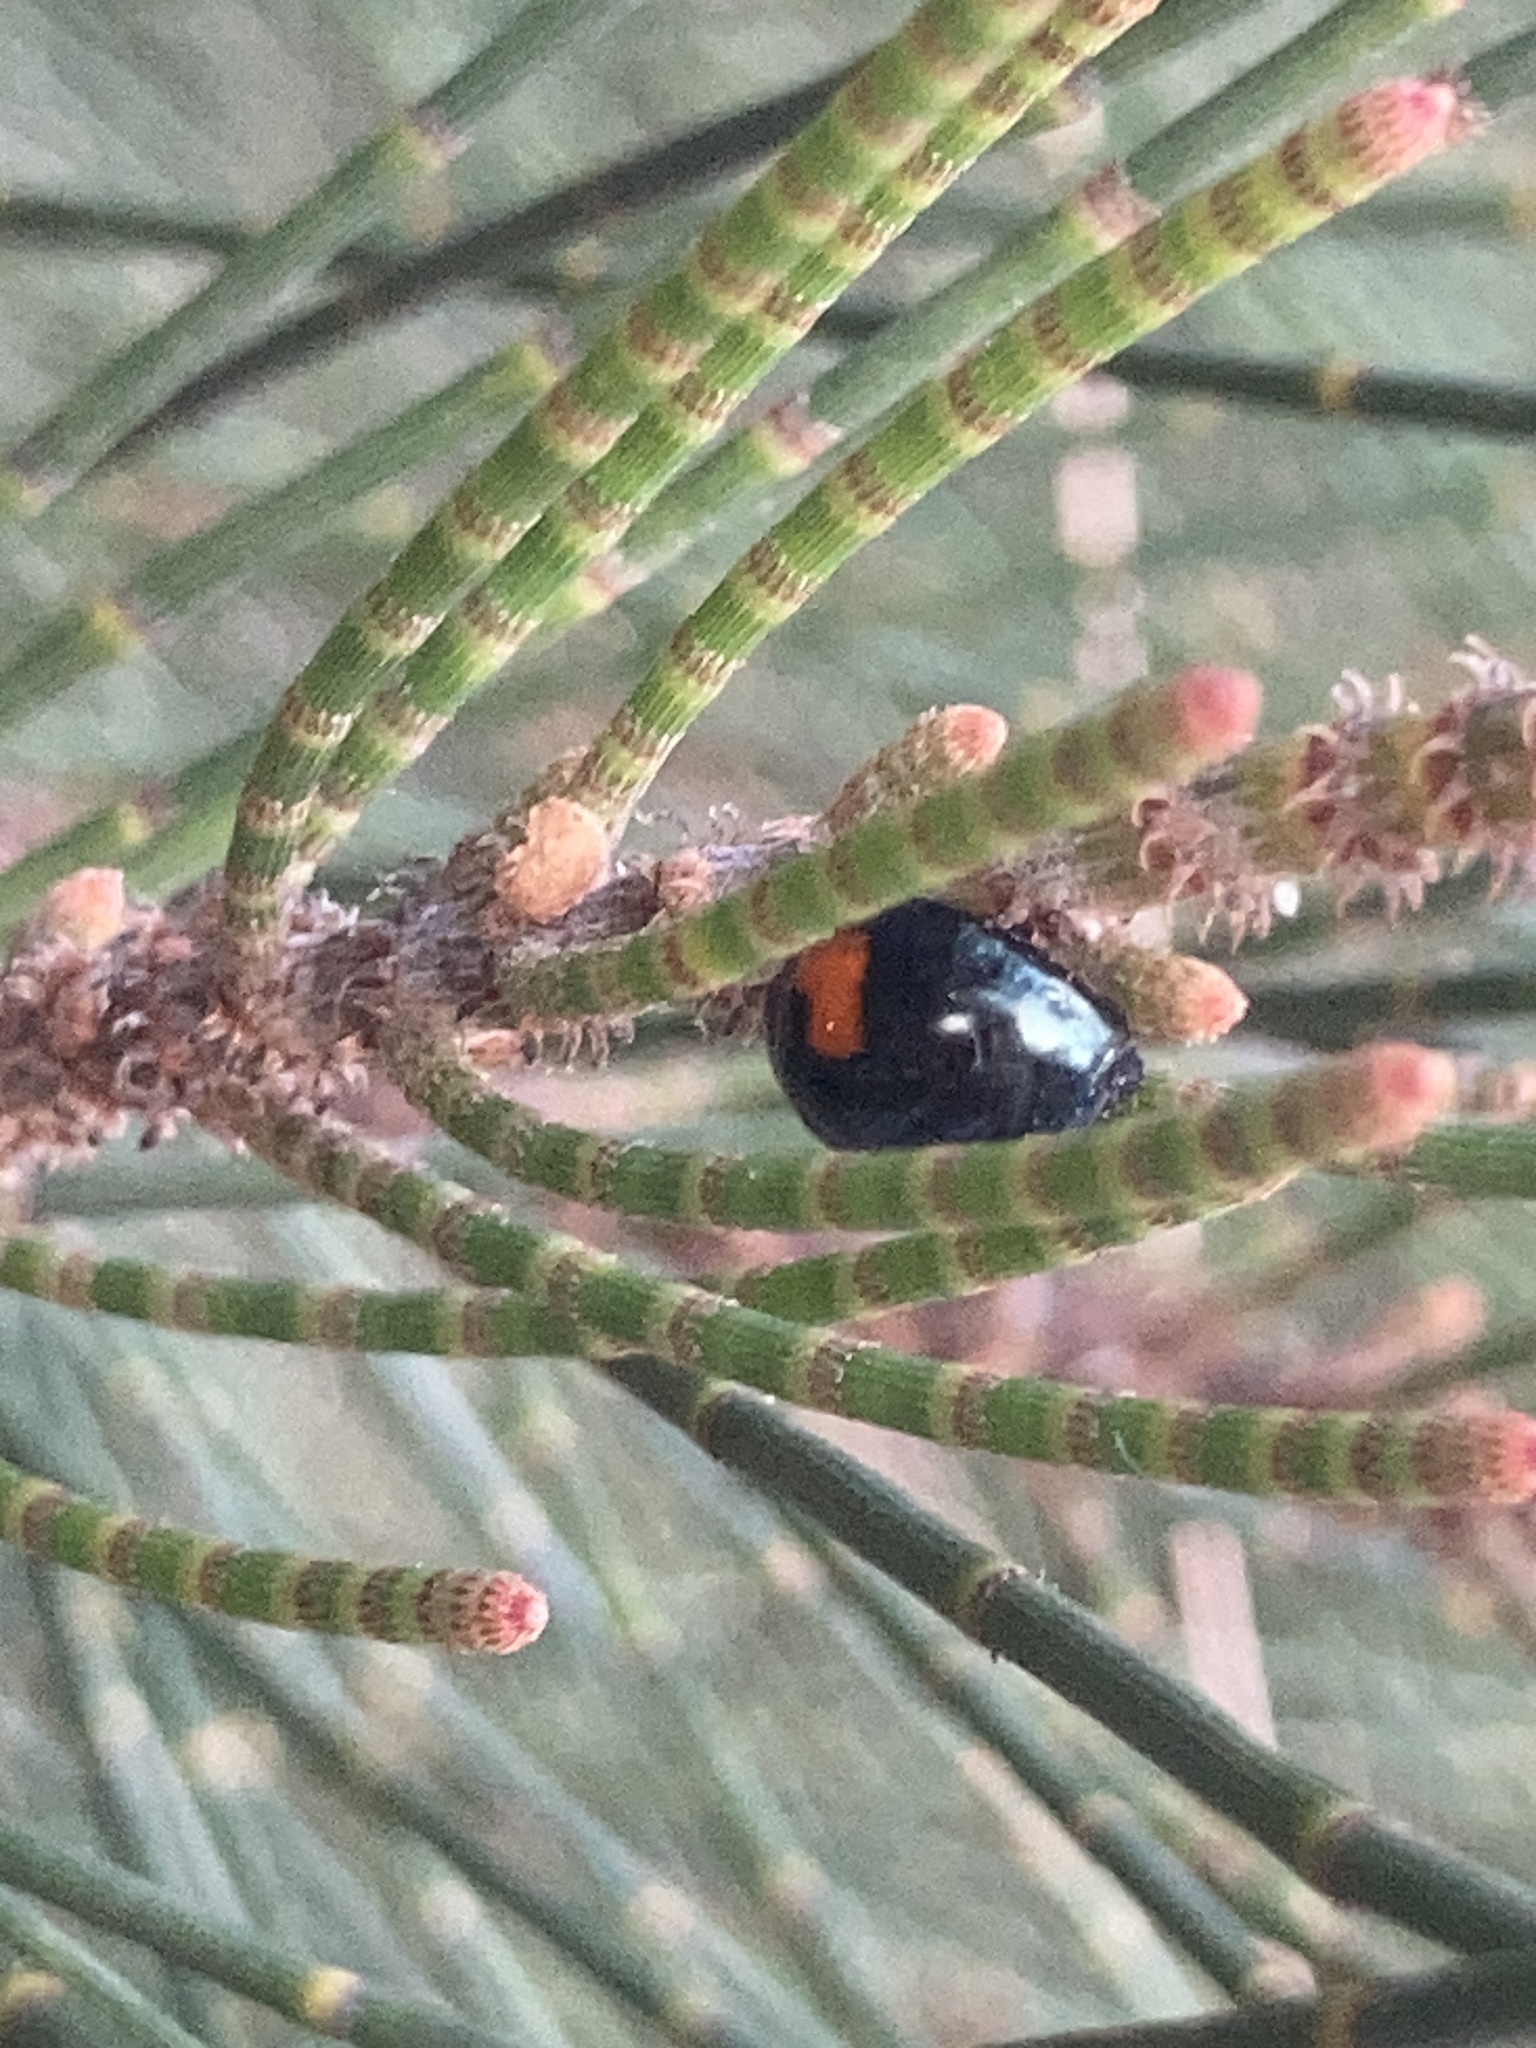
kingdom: Animalia
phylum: Arthropoda
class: Insecta
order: Coleoptera
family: Coccinellidae
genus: Orcus
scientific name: Orcus
